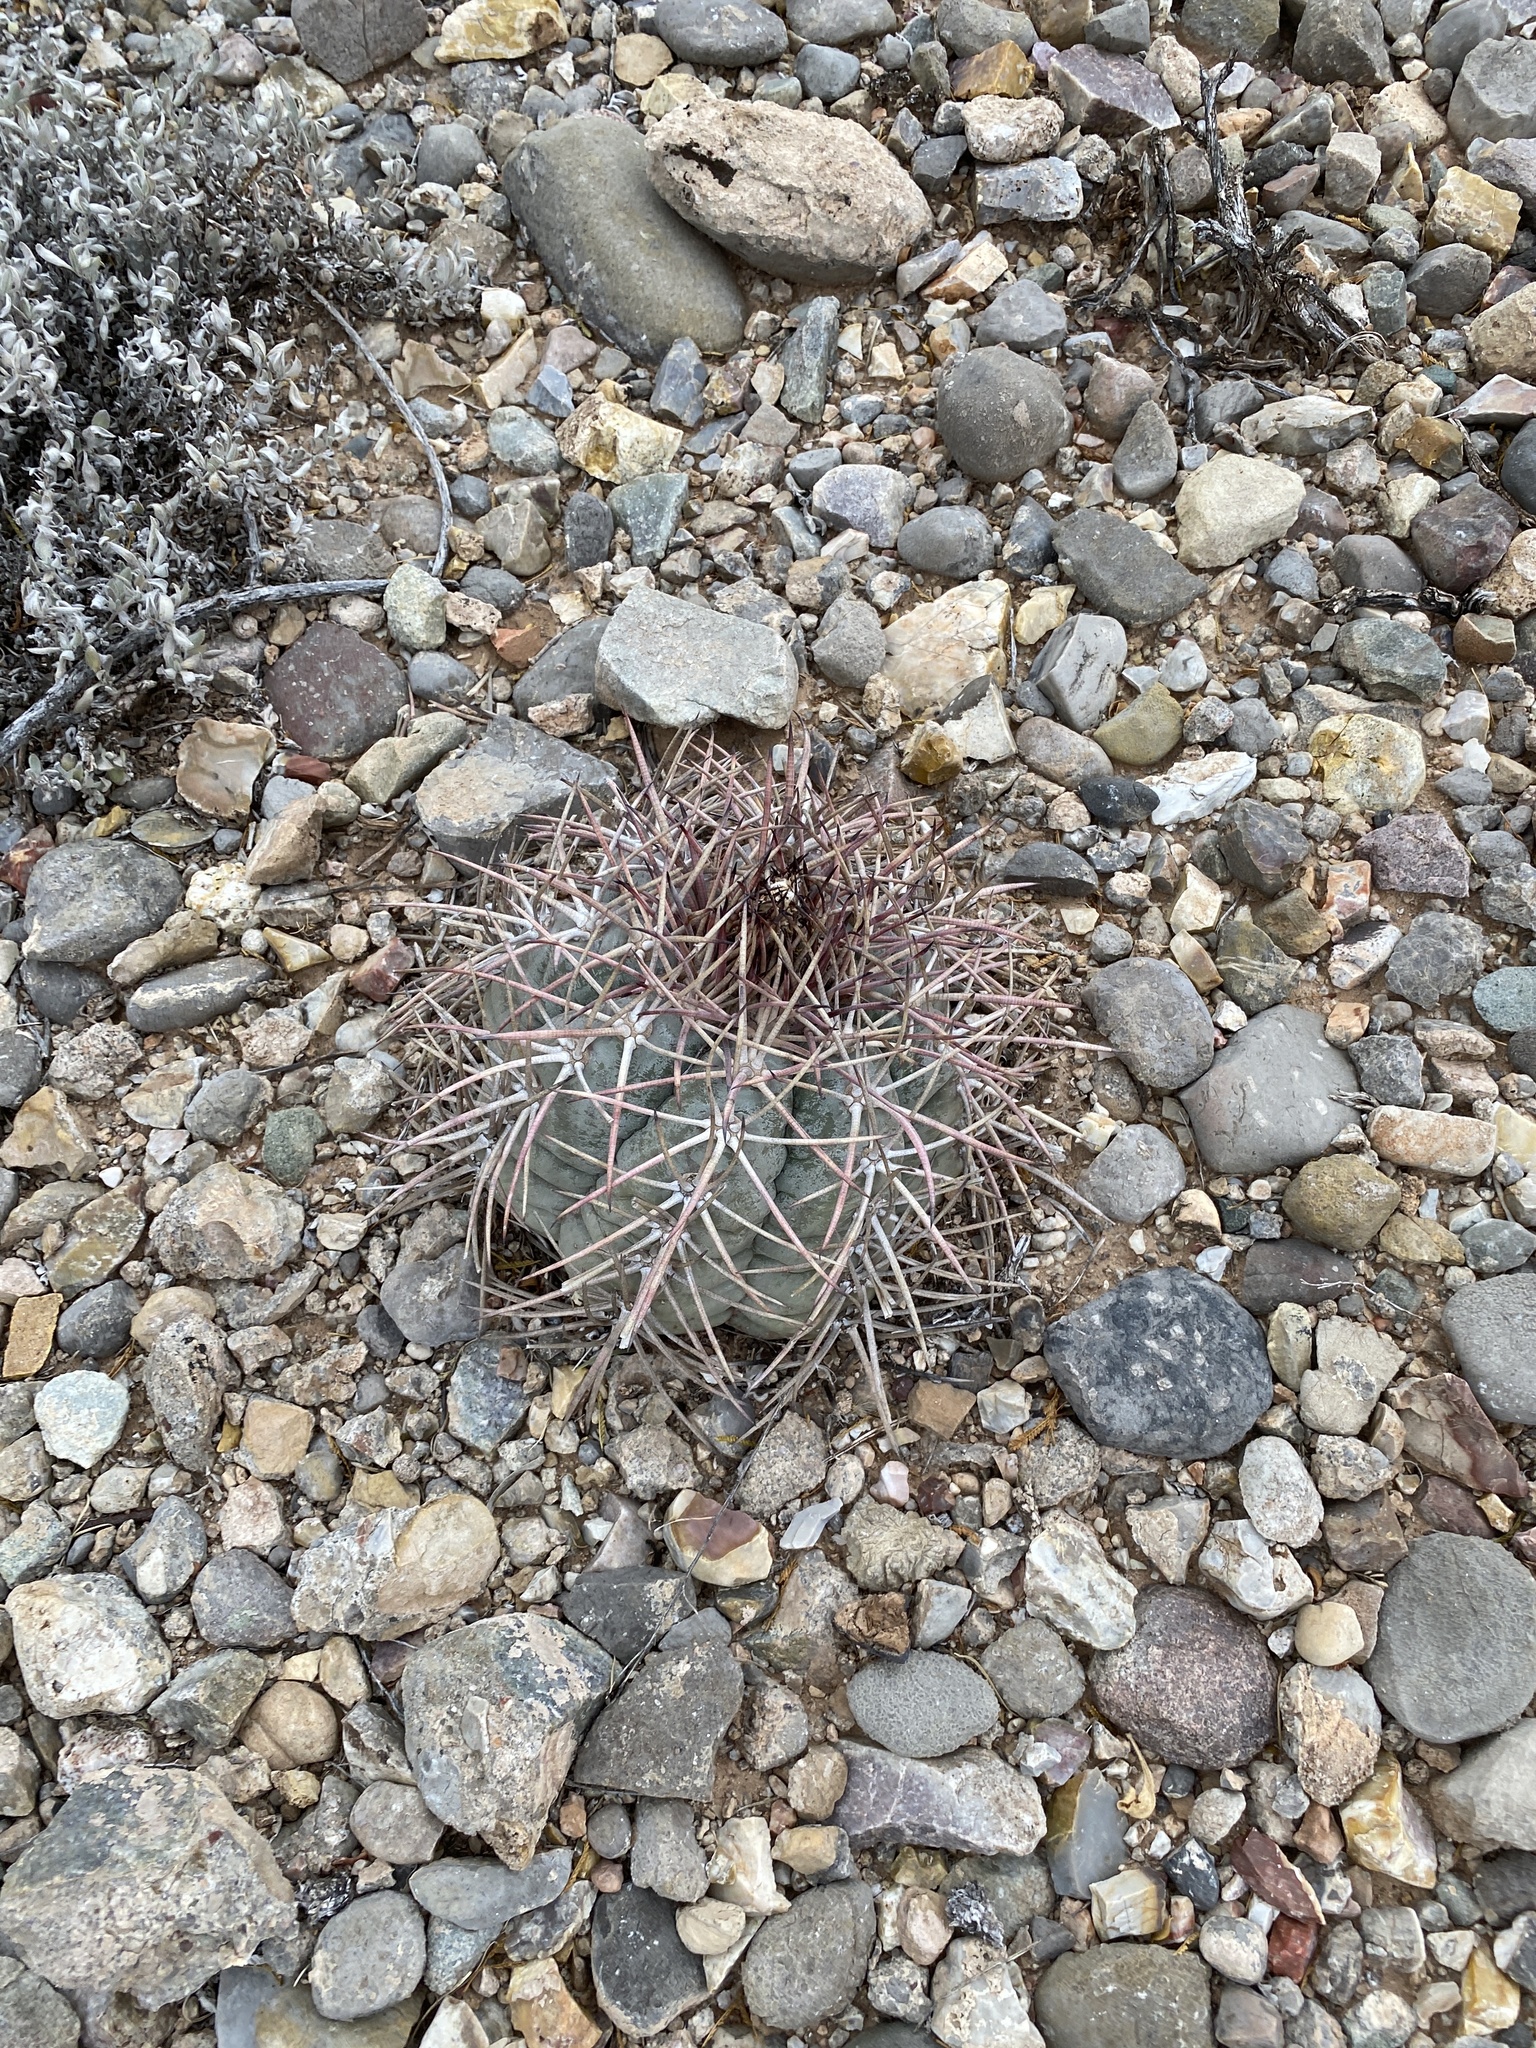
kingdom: Plantae
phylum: Tracheophyta
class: Magnoliopsida
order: Caryophyllales
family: Cactaceae
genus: Echinocactus
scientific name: Echinocactus horizonthalonius
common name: Devilshead
